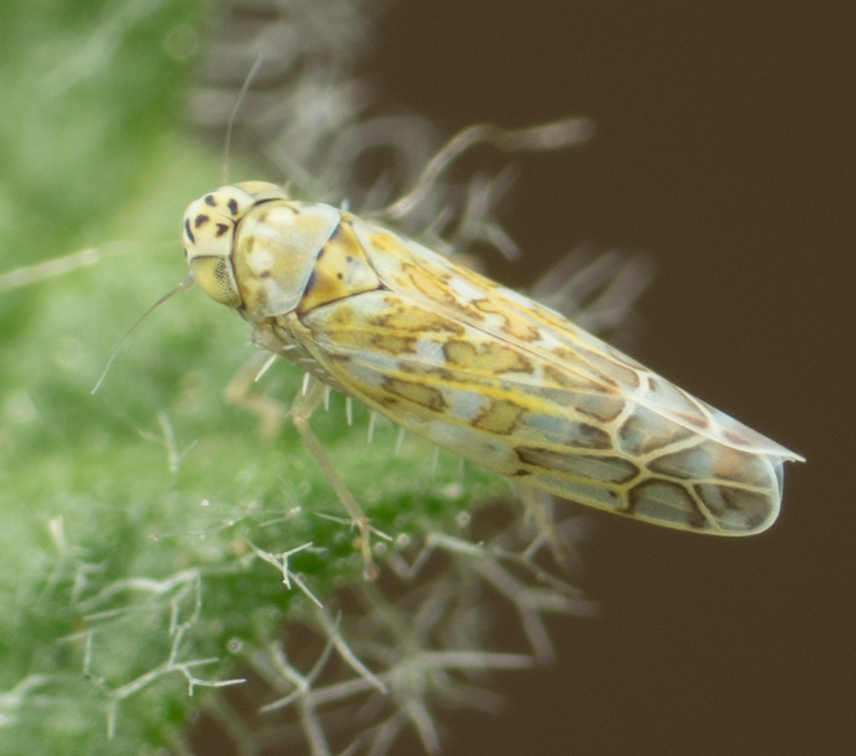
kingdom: Animalia
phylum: Arthropoda
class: Insecta
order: Hemiptera
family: Cicadellidae
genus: Eupteryx
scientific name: Eupteryx decemnotata
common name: Ligurian leafhopper
